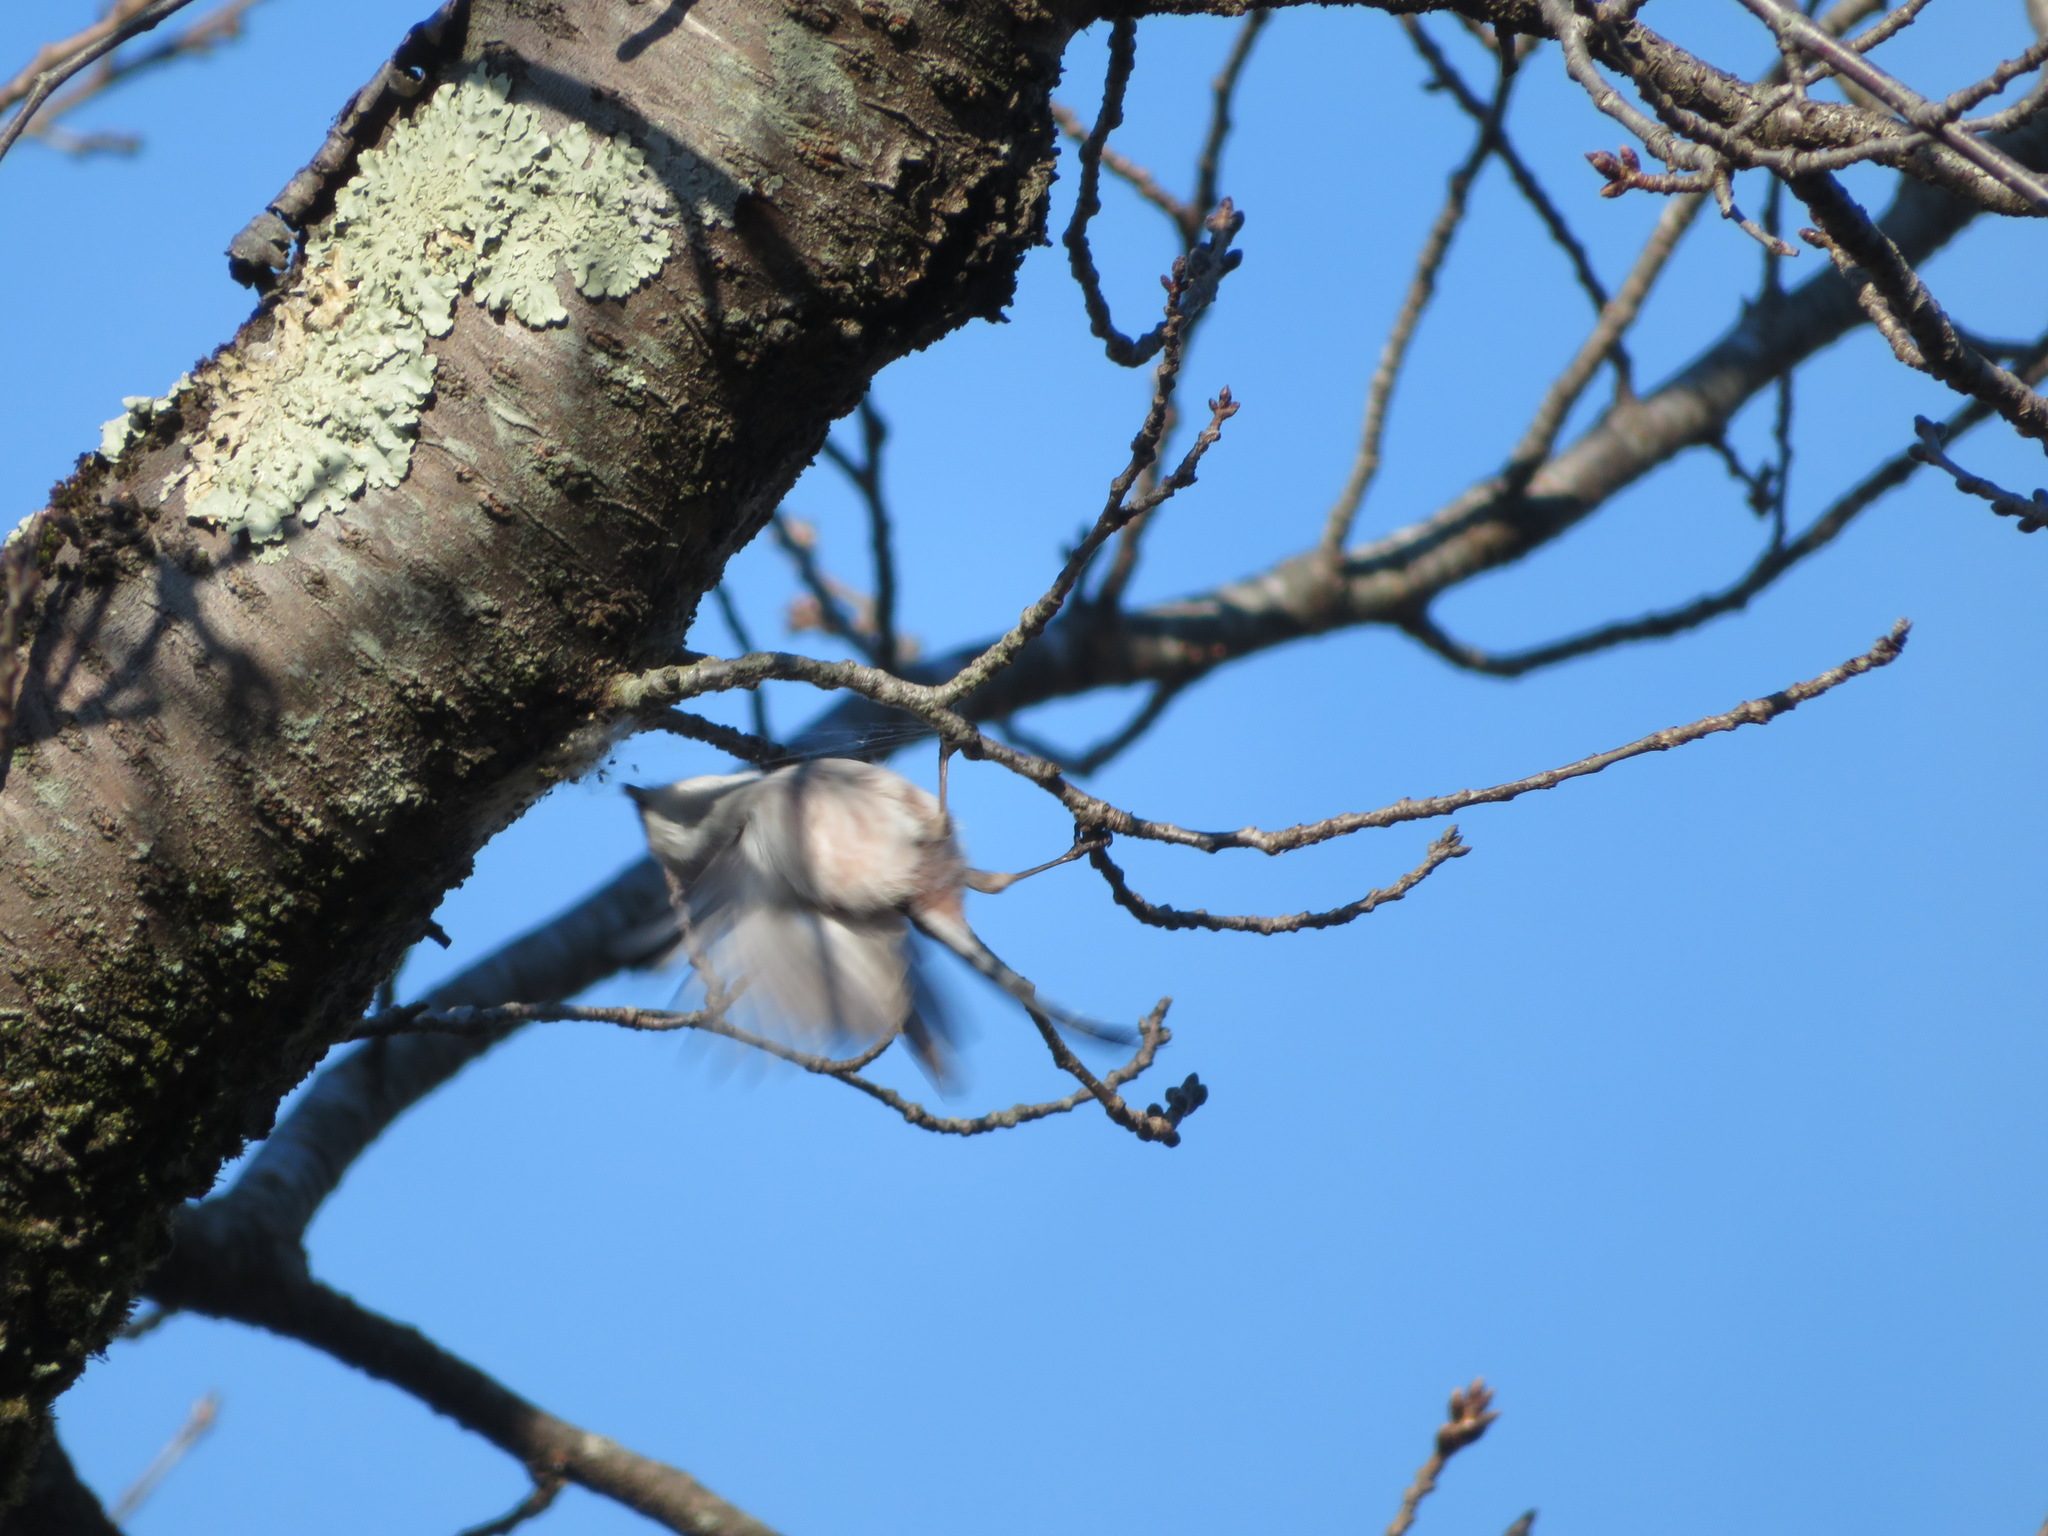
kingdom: Animalia
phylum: Chordata
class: Aves
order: Passeriformes
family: Aegithalidae
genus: Aegithalos
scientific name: Aegithalos caudatus
